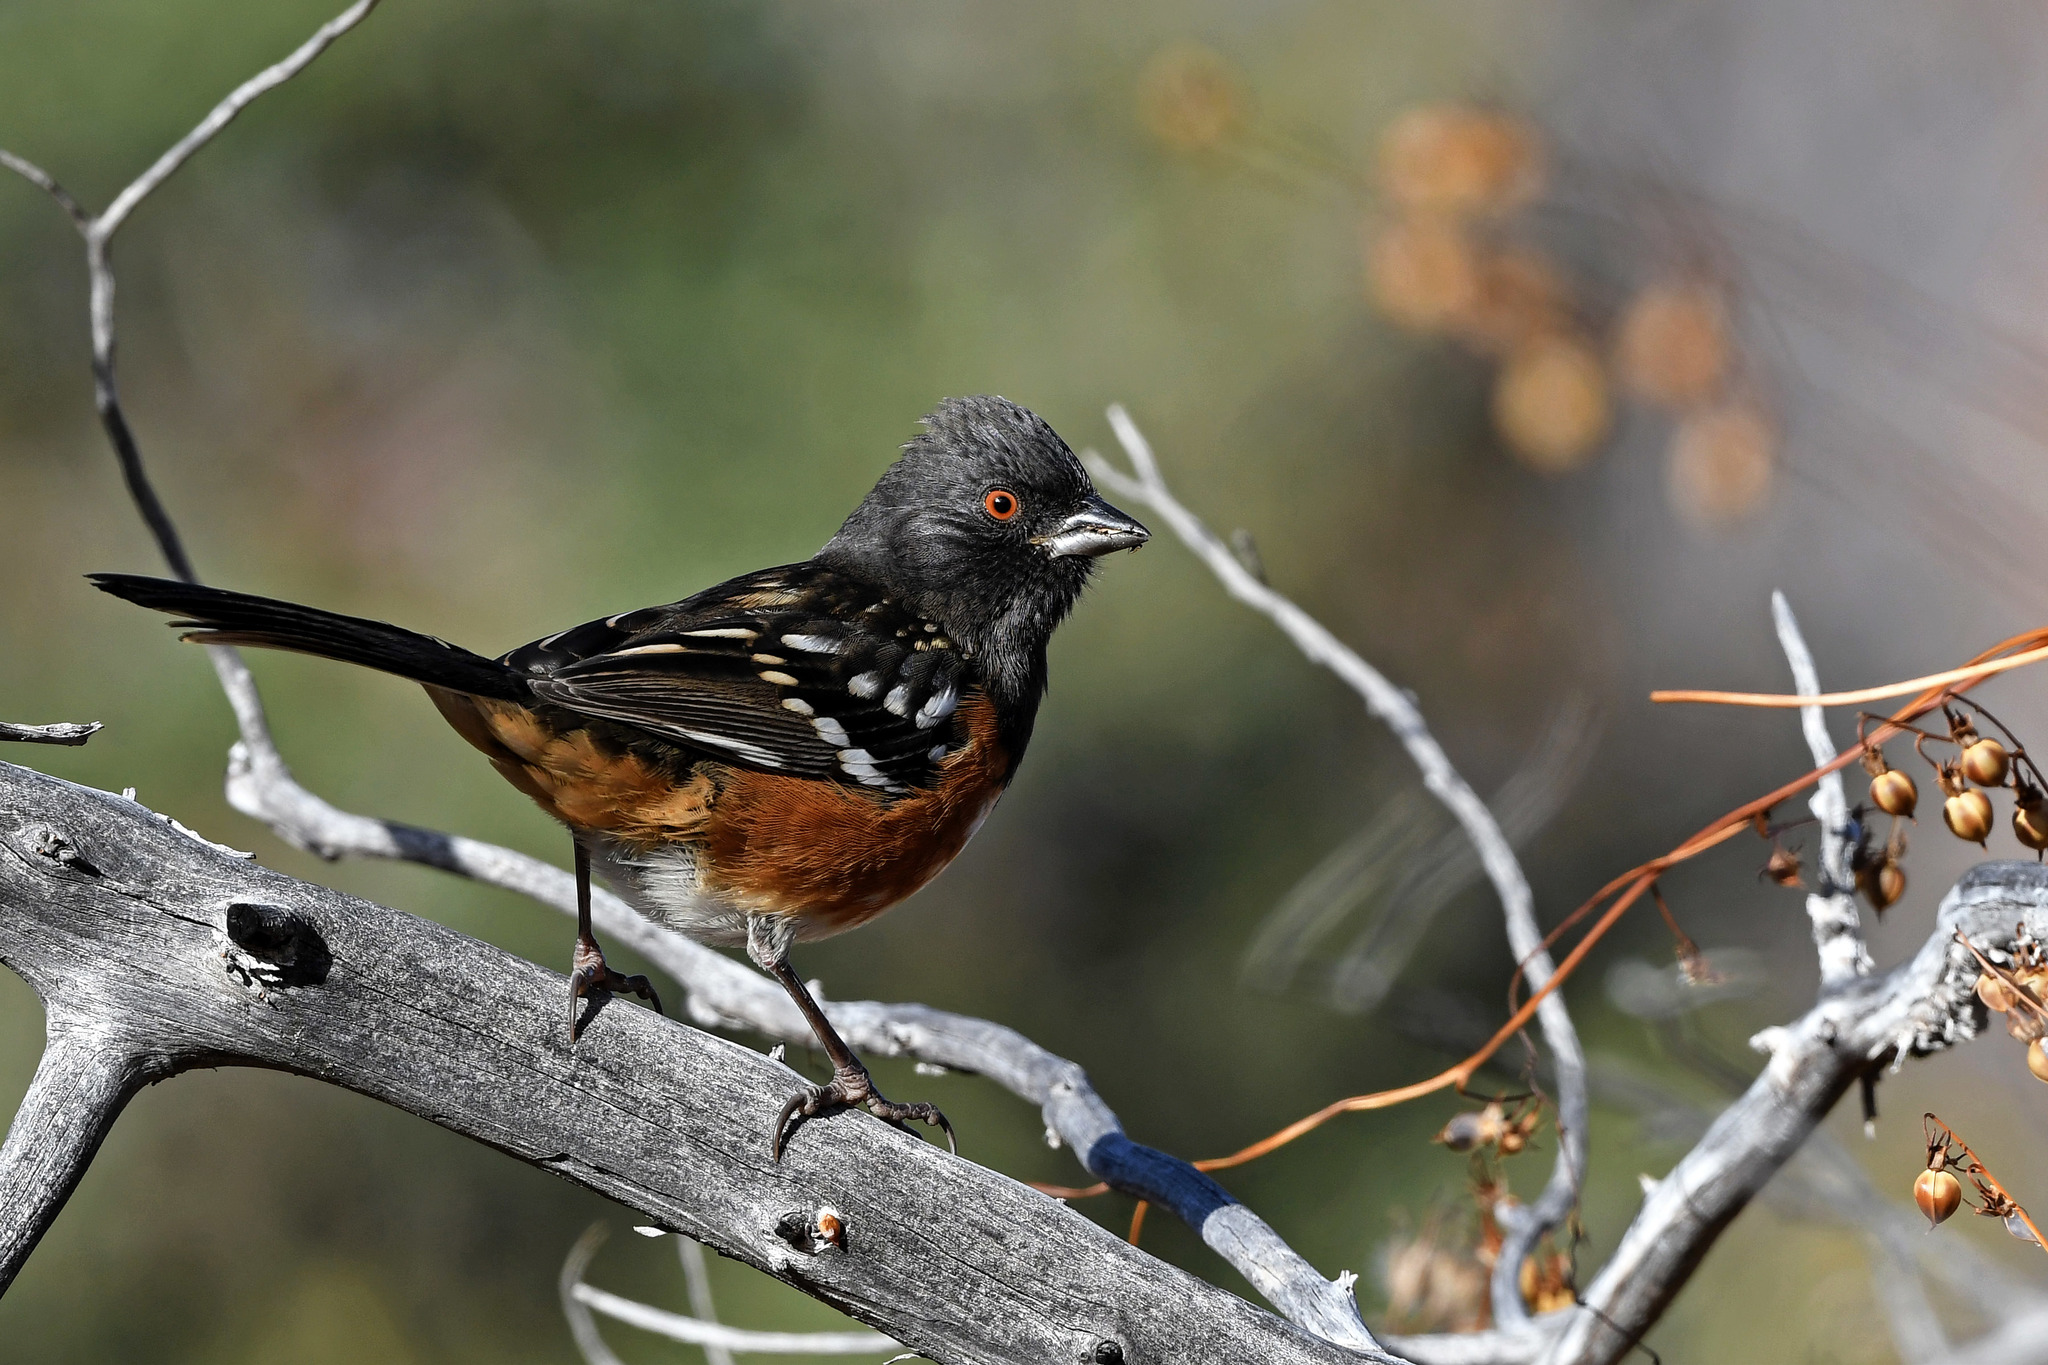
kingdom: Animalia
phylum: Chordata
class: Aves
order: Passeriformes
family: Passerellidae
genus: Pipilo
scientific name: Pipilo maculatus
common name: Spotted towhee
